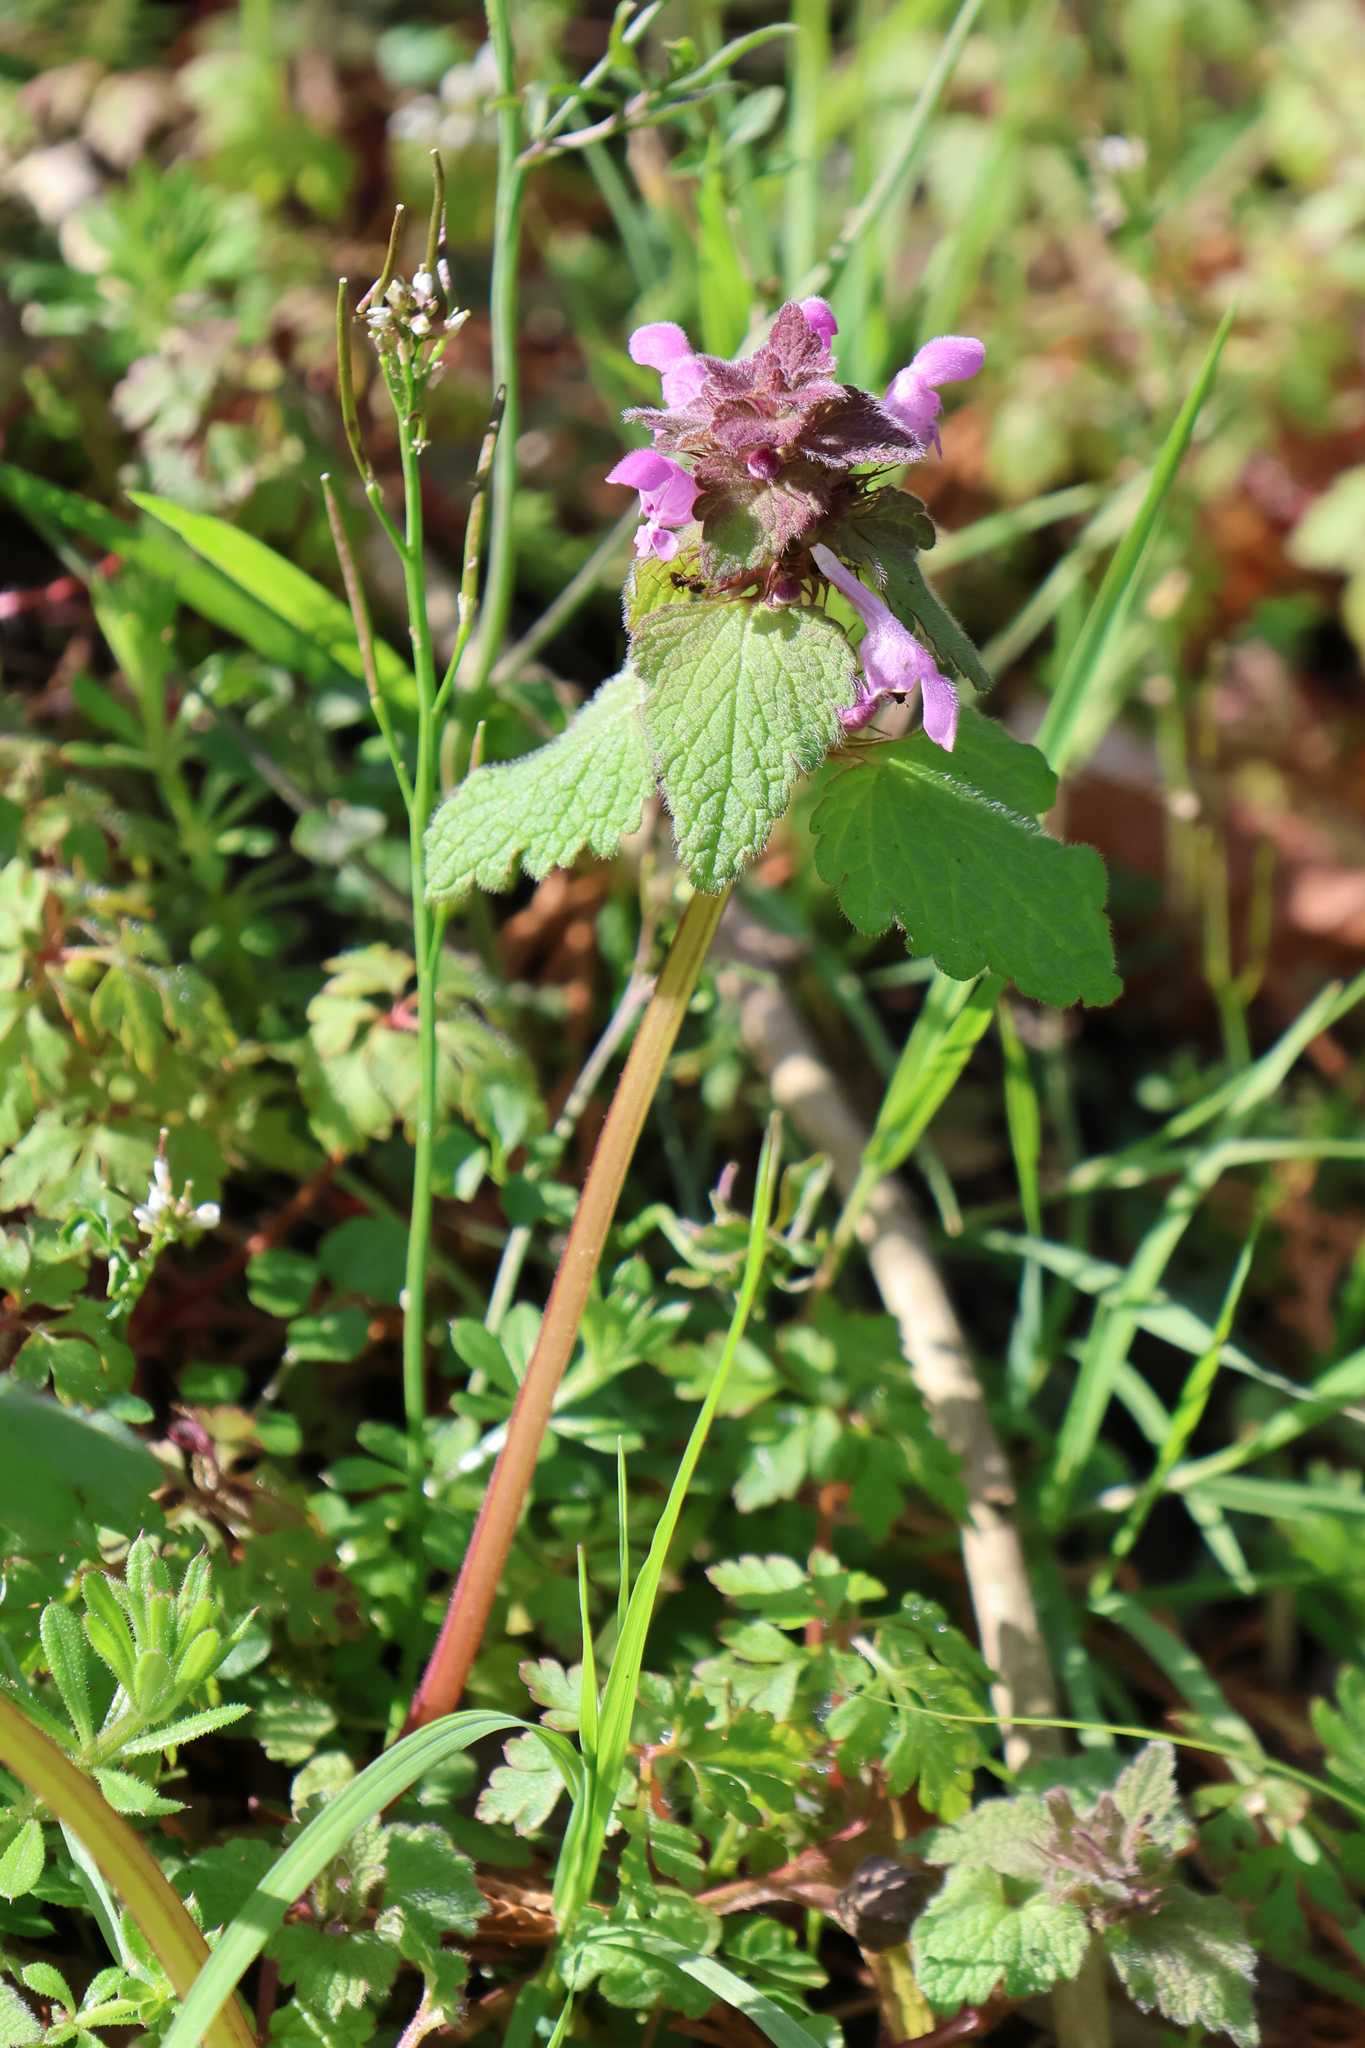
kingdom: Plantae
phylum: Tracheophyta
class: Magnoliopsida
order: Lamiales
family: Lamiaceae
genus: Lamium
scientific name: Lamium purpureum
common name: Red dead-nettle
